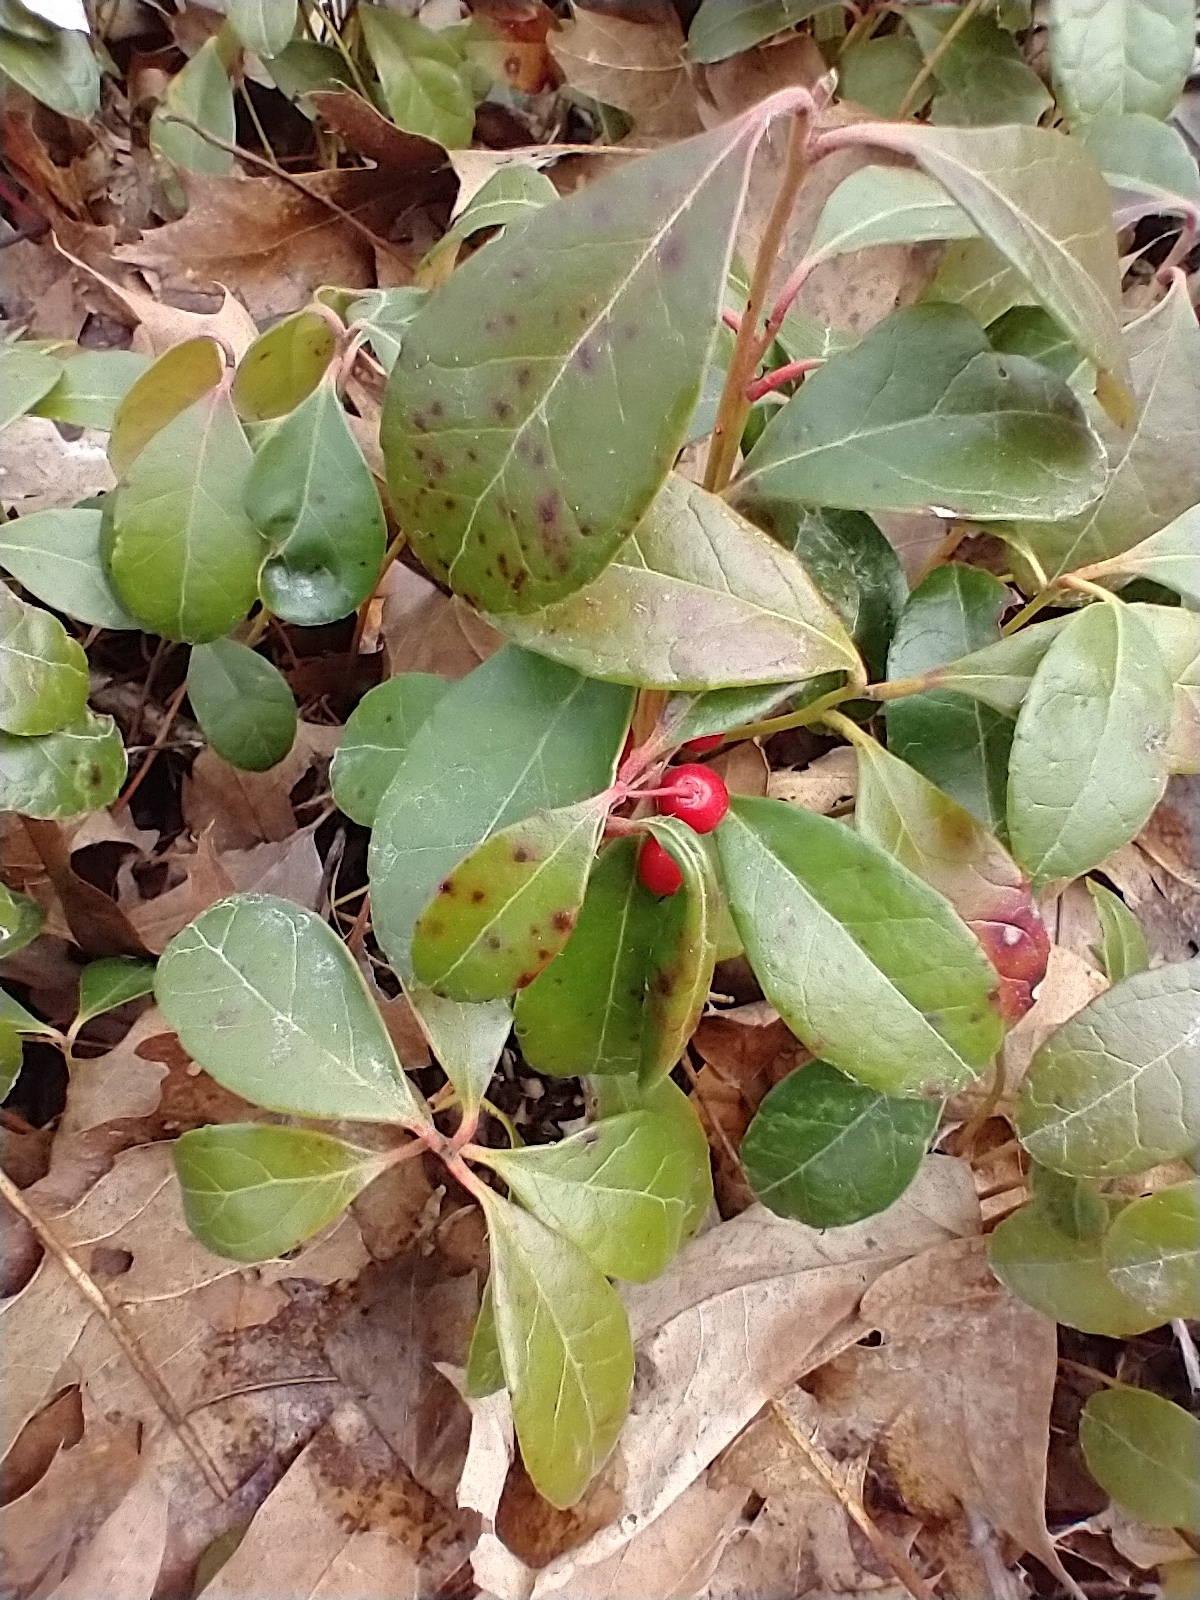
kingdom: Plantae
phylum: Tracheophyta
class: Magnoliopsida
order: Ericales
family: Ericaceae
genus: Gaultheria
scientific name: Gaultheria procumbens
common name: Checkerberry
